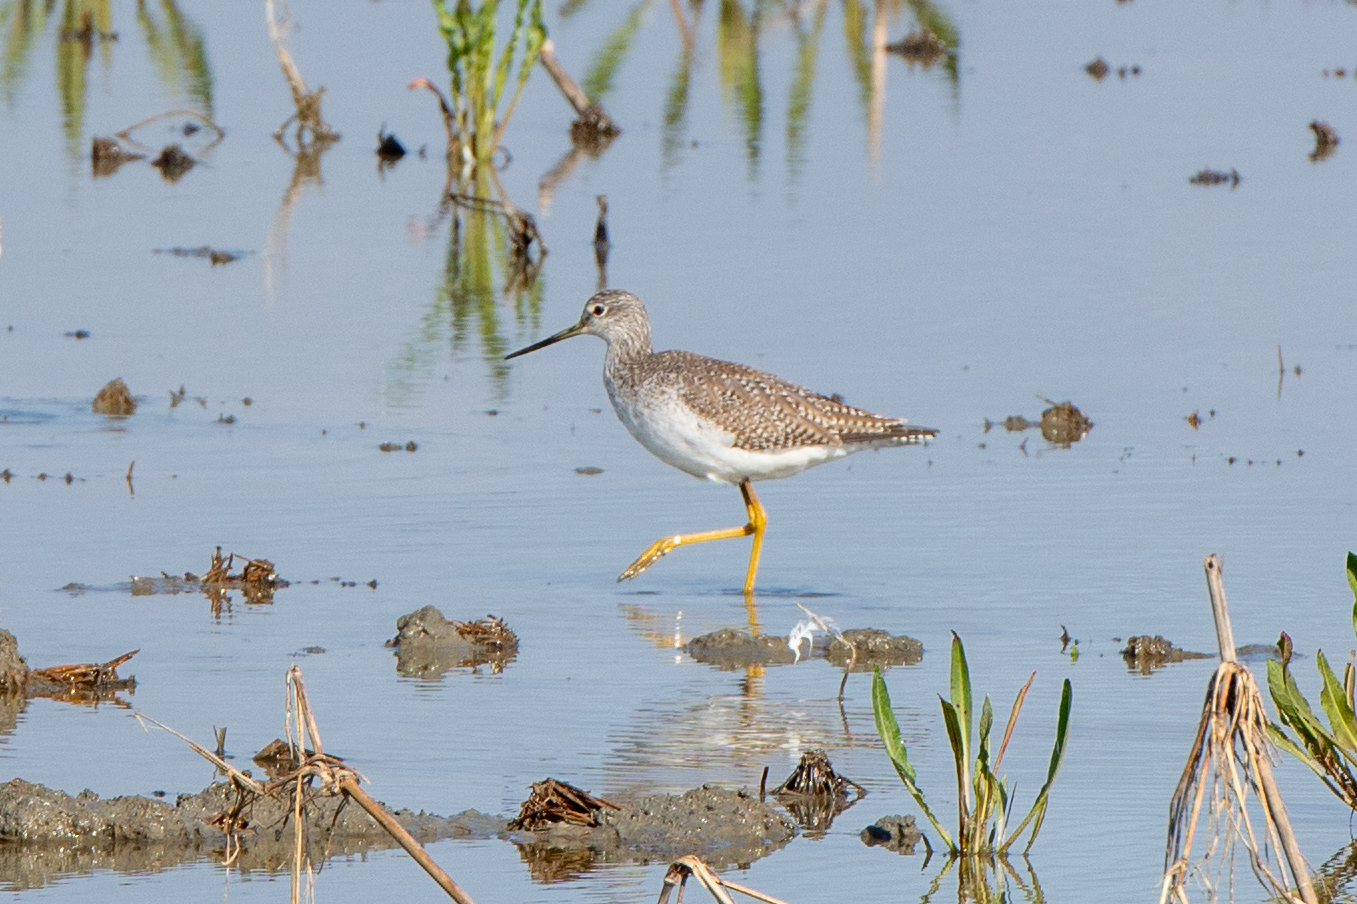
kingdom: Animalia
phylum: Chordata
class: Aves
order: Charadriiformes
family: Scolopacidae
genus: Tringa
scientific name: Tringa melanoleuca
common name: Greater yellowlegs
